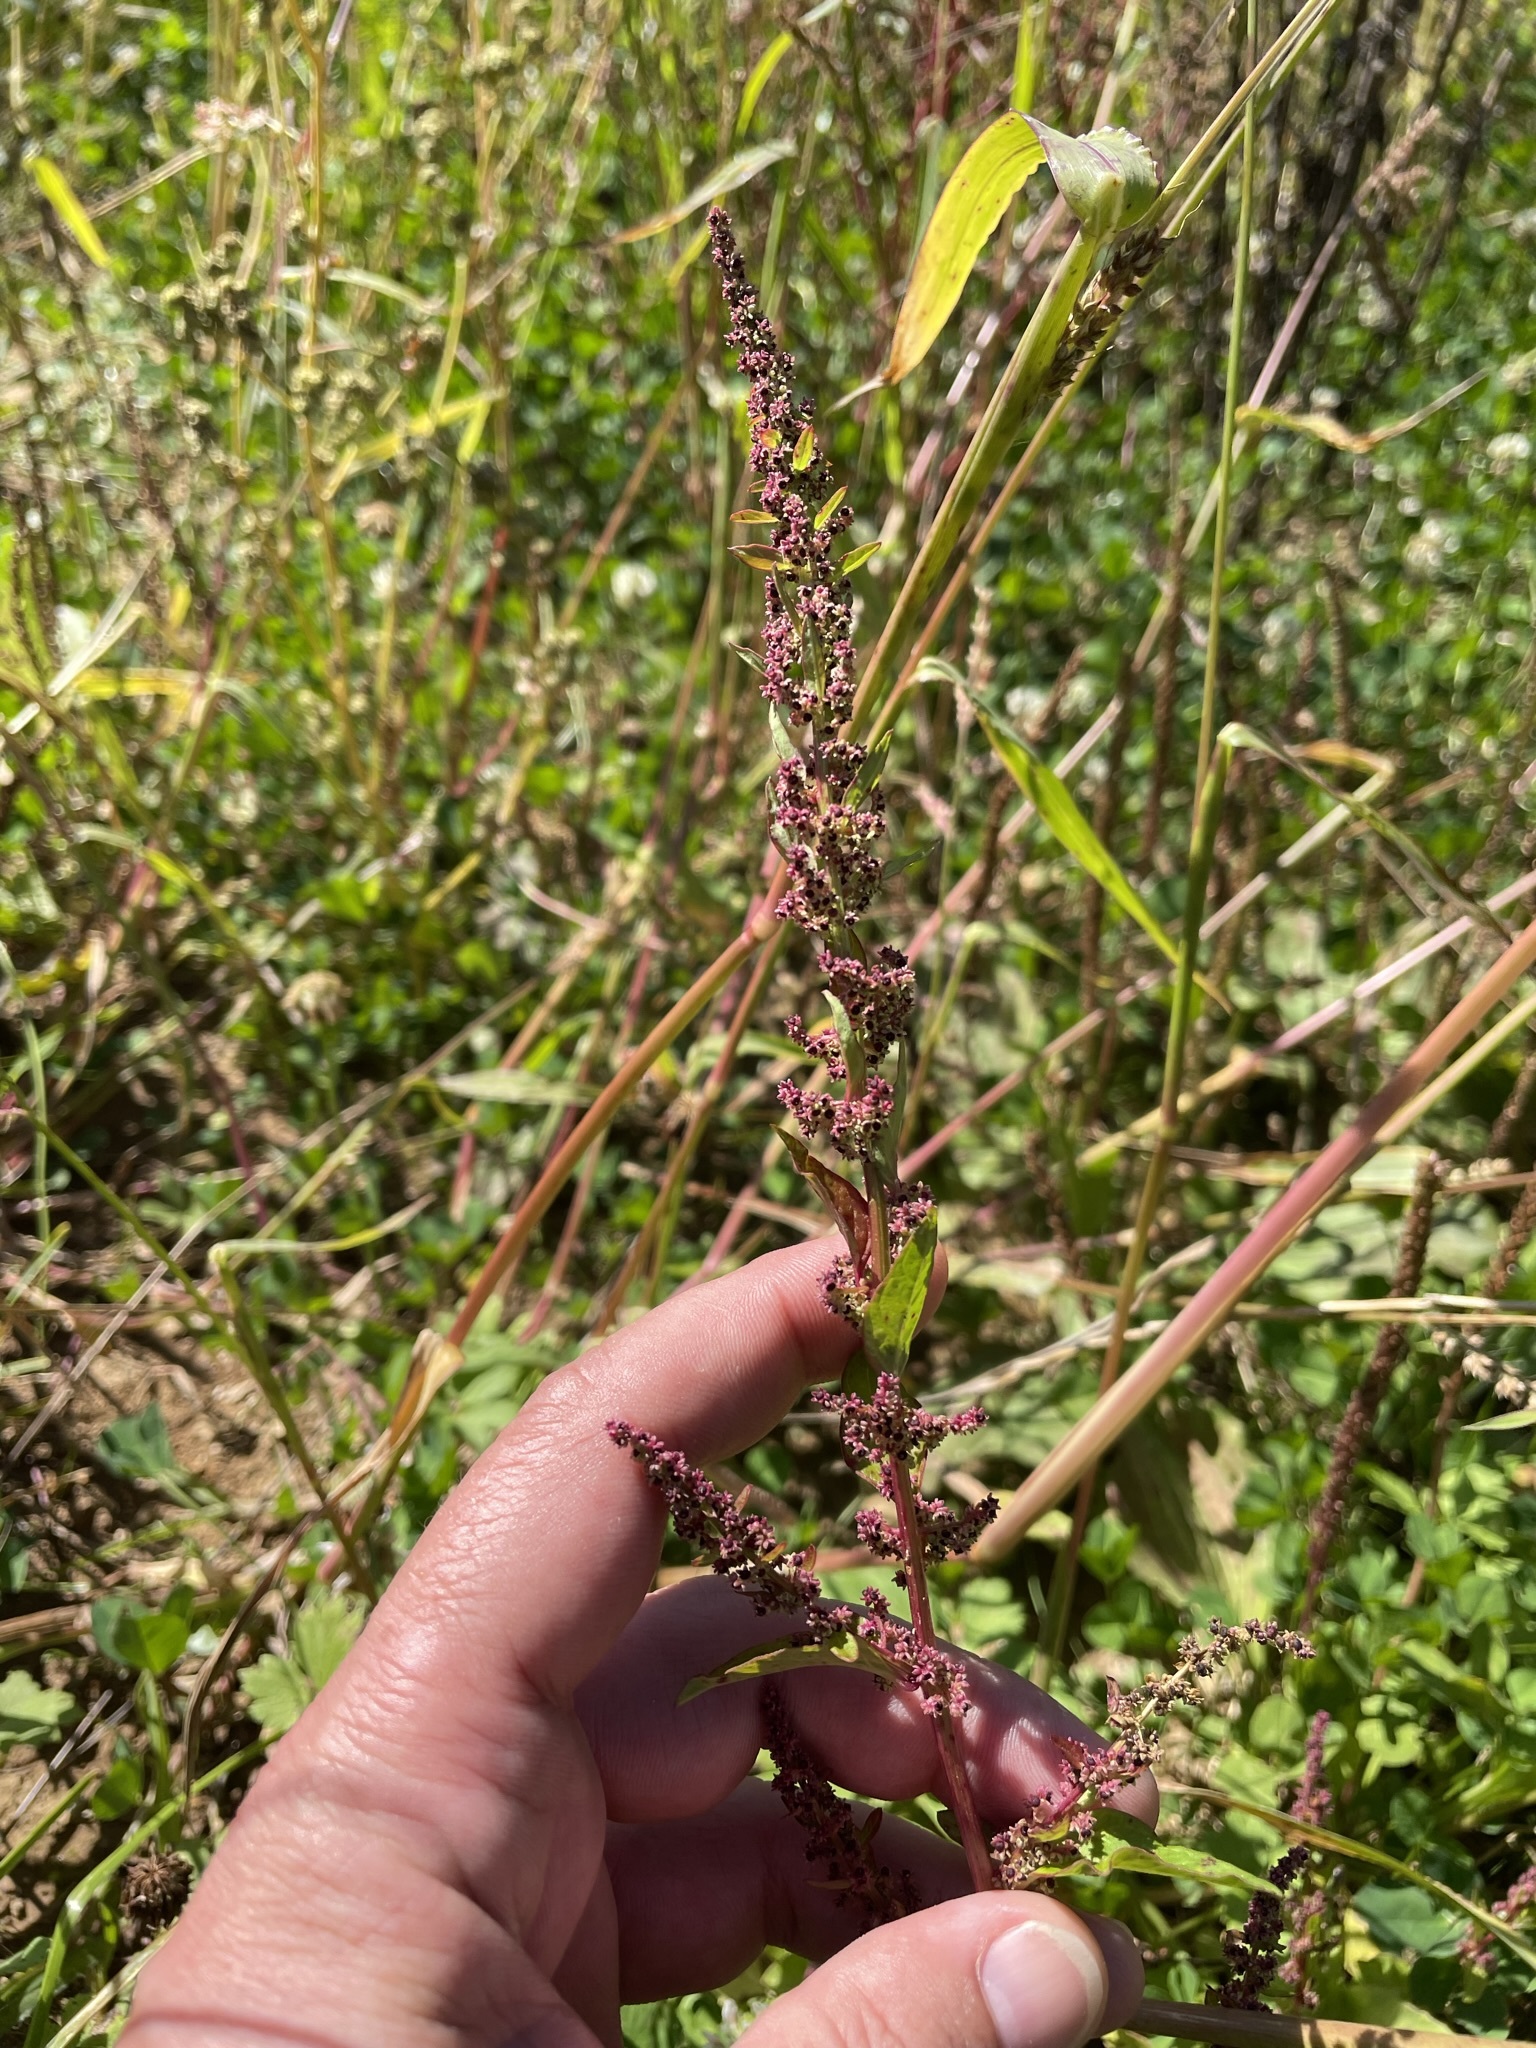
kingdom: Plantae
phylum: Tracheophyta
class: Magnoliopsida
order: Caryophyllales
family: Amaranthaceae
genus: Lipandra
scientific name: Lipandra polysperma
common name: Many-seed goosefoot
